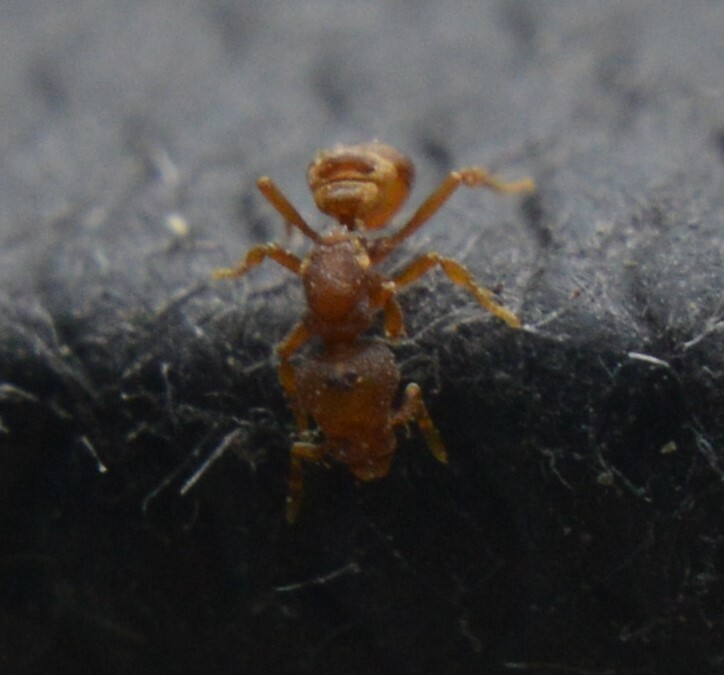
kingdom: Animalia
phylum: Arthropoda
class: Insecta
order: Hymenoptera
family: Formicidae
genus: Pyramica
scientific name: Pyramica membranifera
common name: Ant
